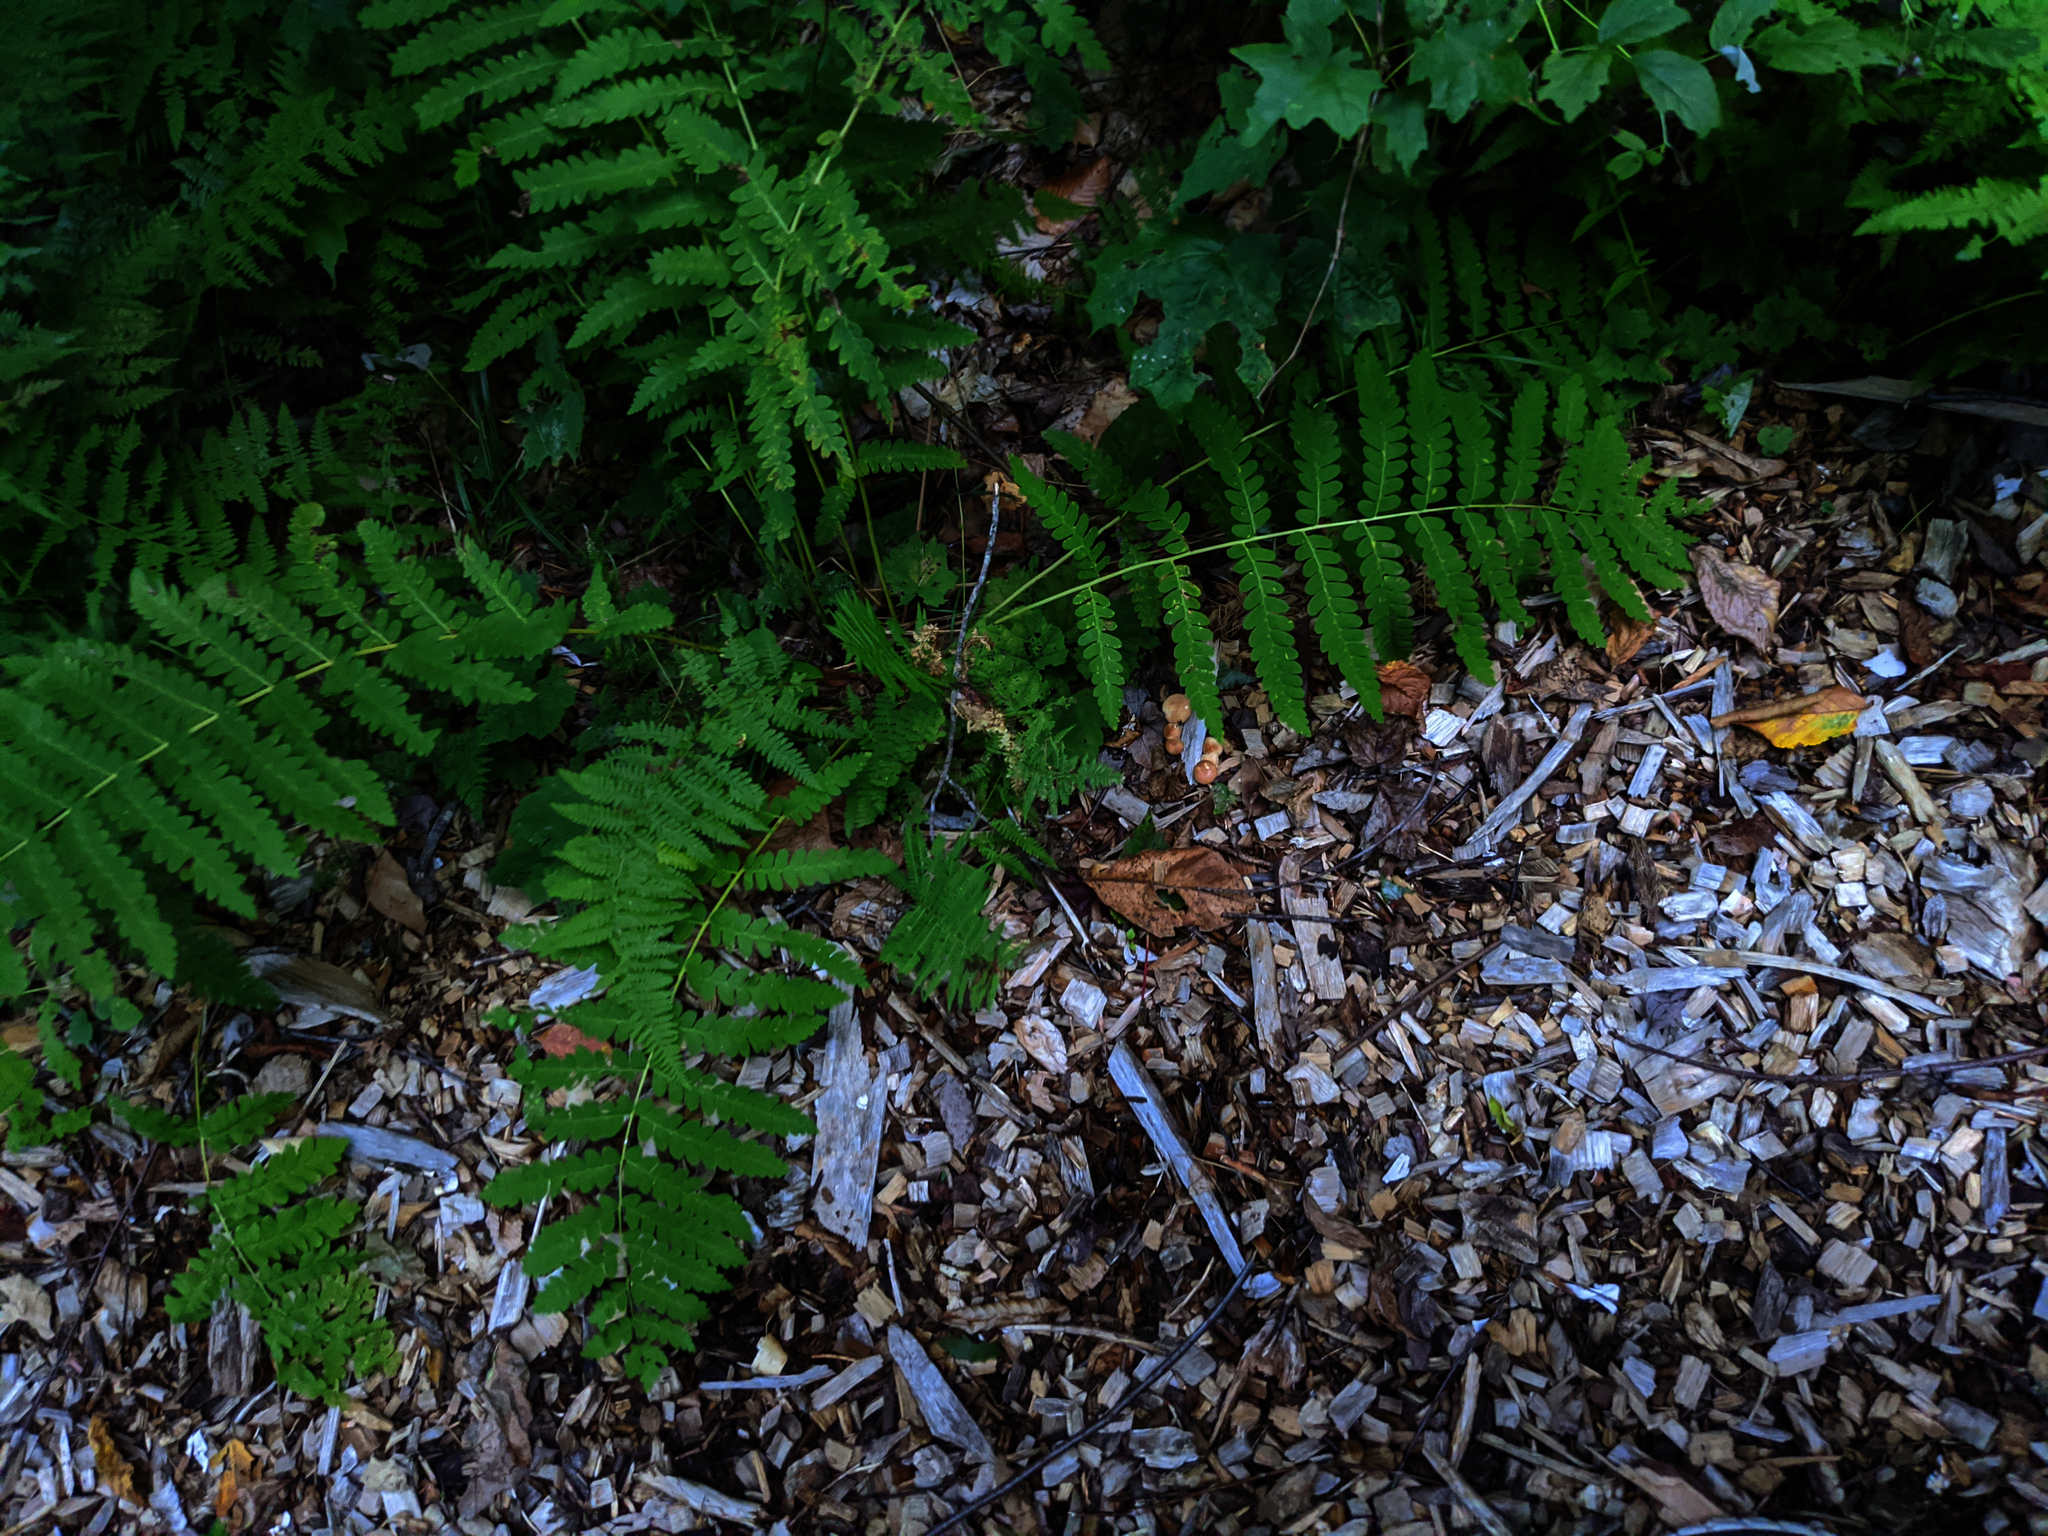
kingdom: Plantae
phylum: Tracheophyta
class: Polypodiopsida
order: Osmundales
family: Osmundaceae
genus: Claytosmunda
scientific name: Claytosmunda claytoniana
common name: Clayton's fern
